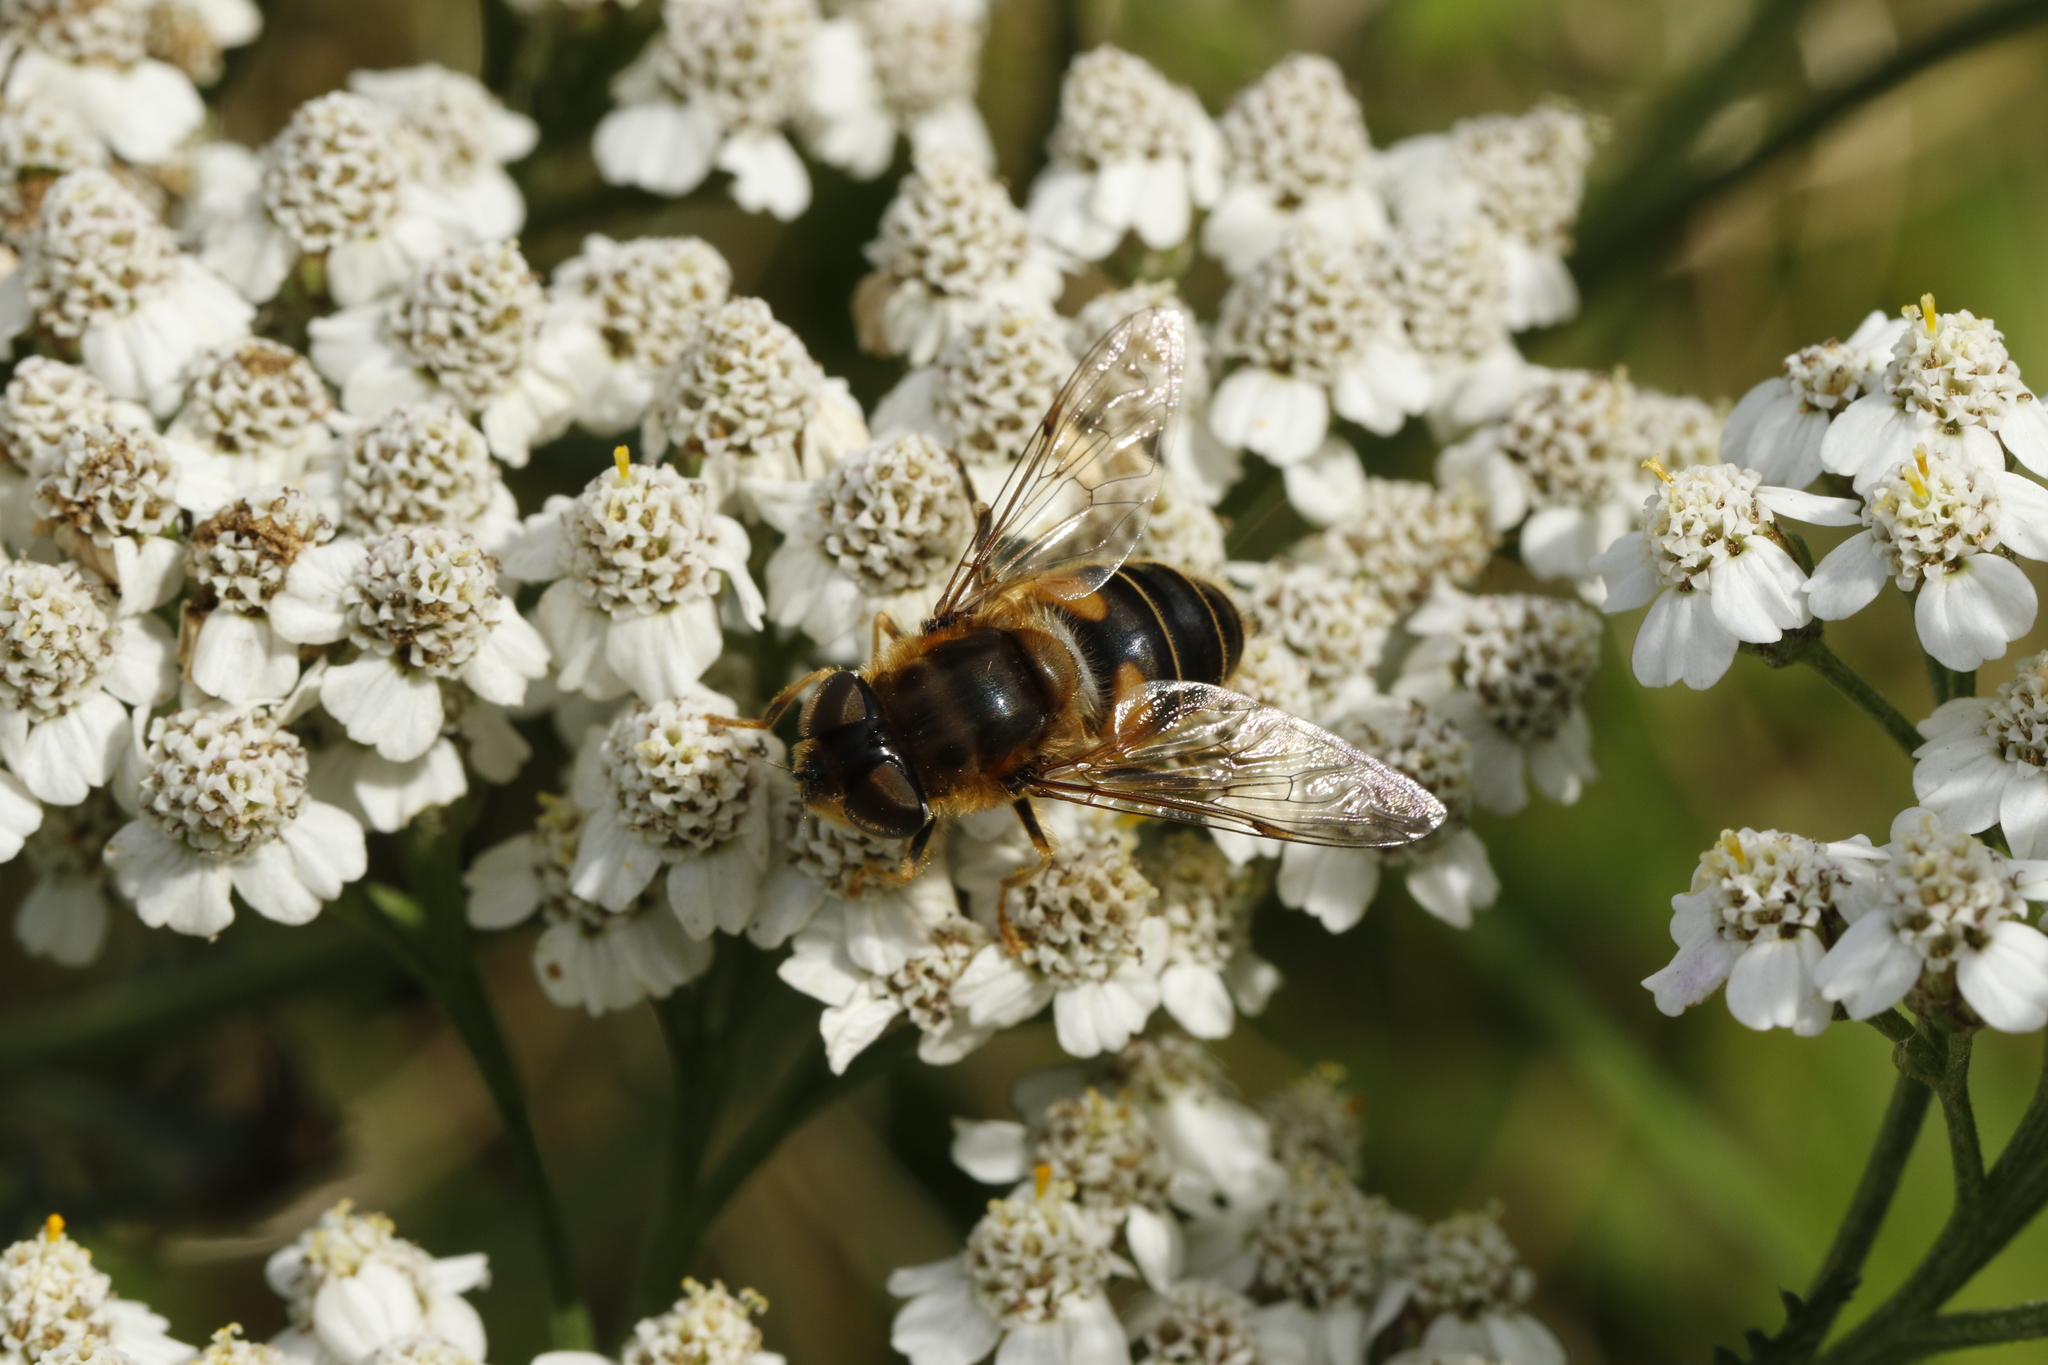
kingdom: Animalia
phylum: Arthropoda
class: Insecta
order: Diptera
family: Syrphidae
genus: Eristalis
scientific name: Eristalis pertinax
